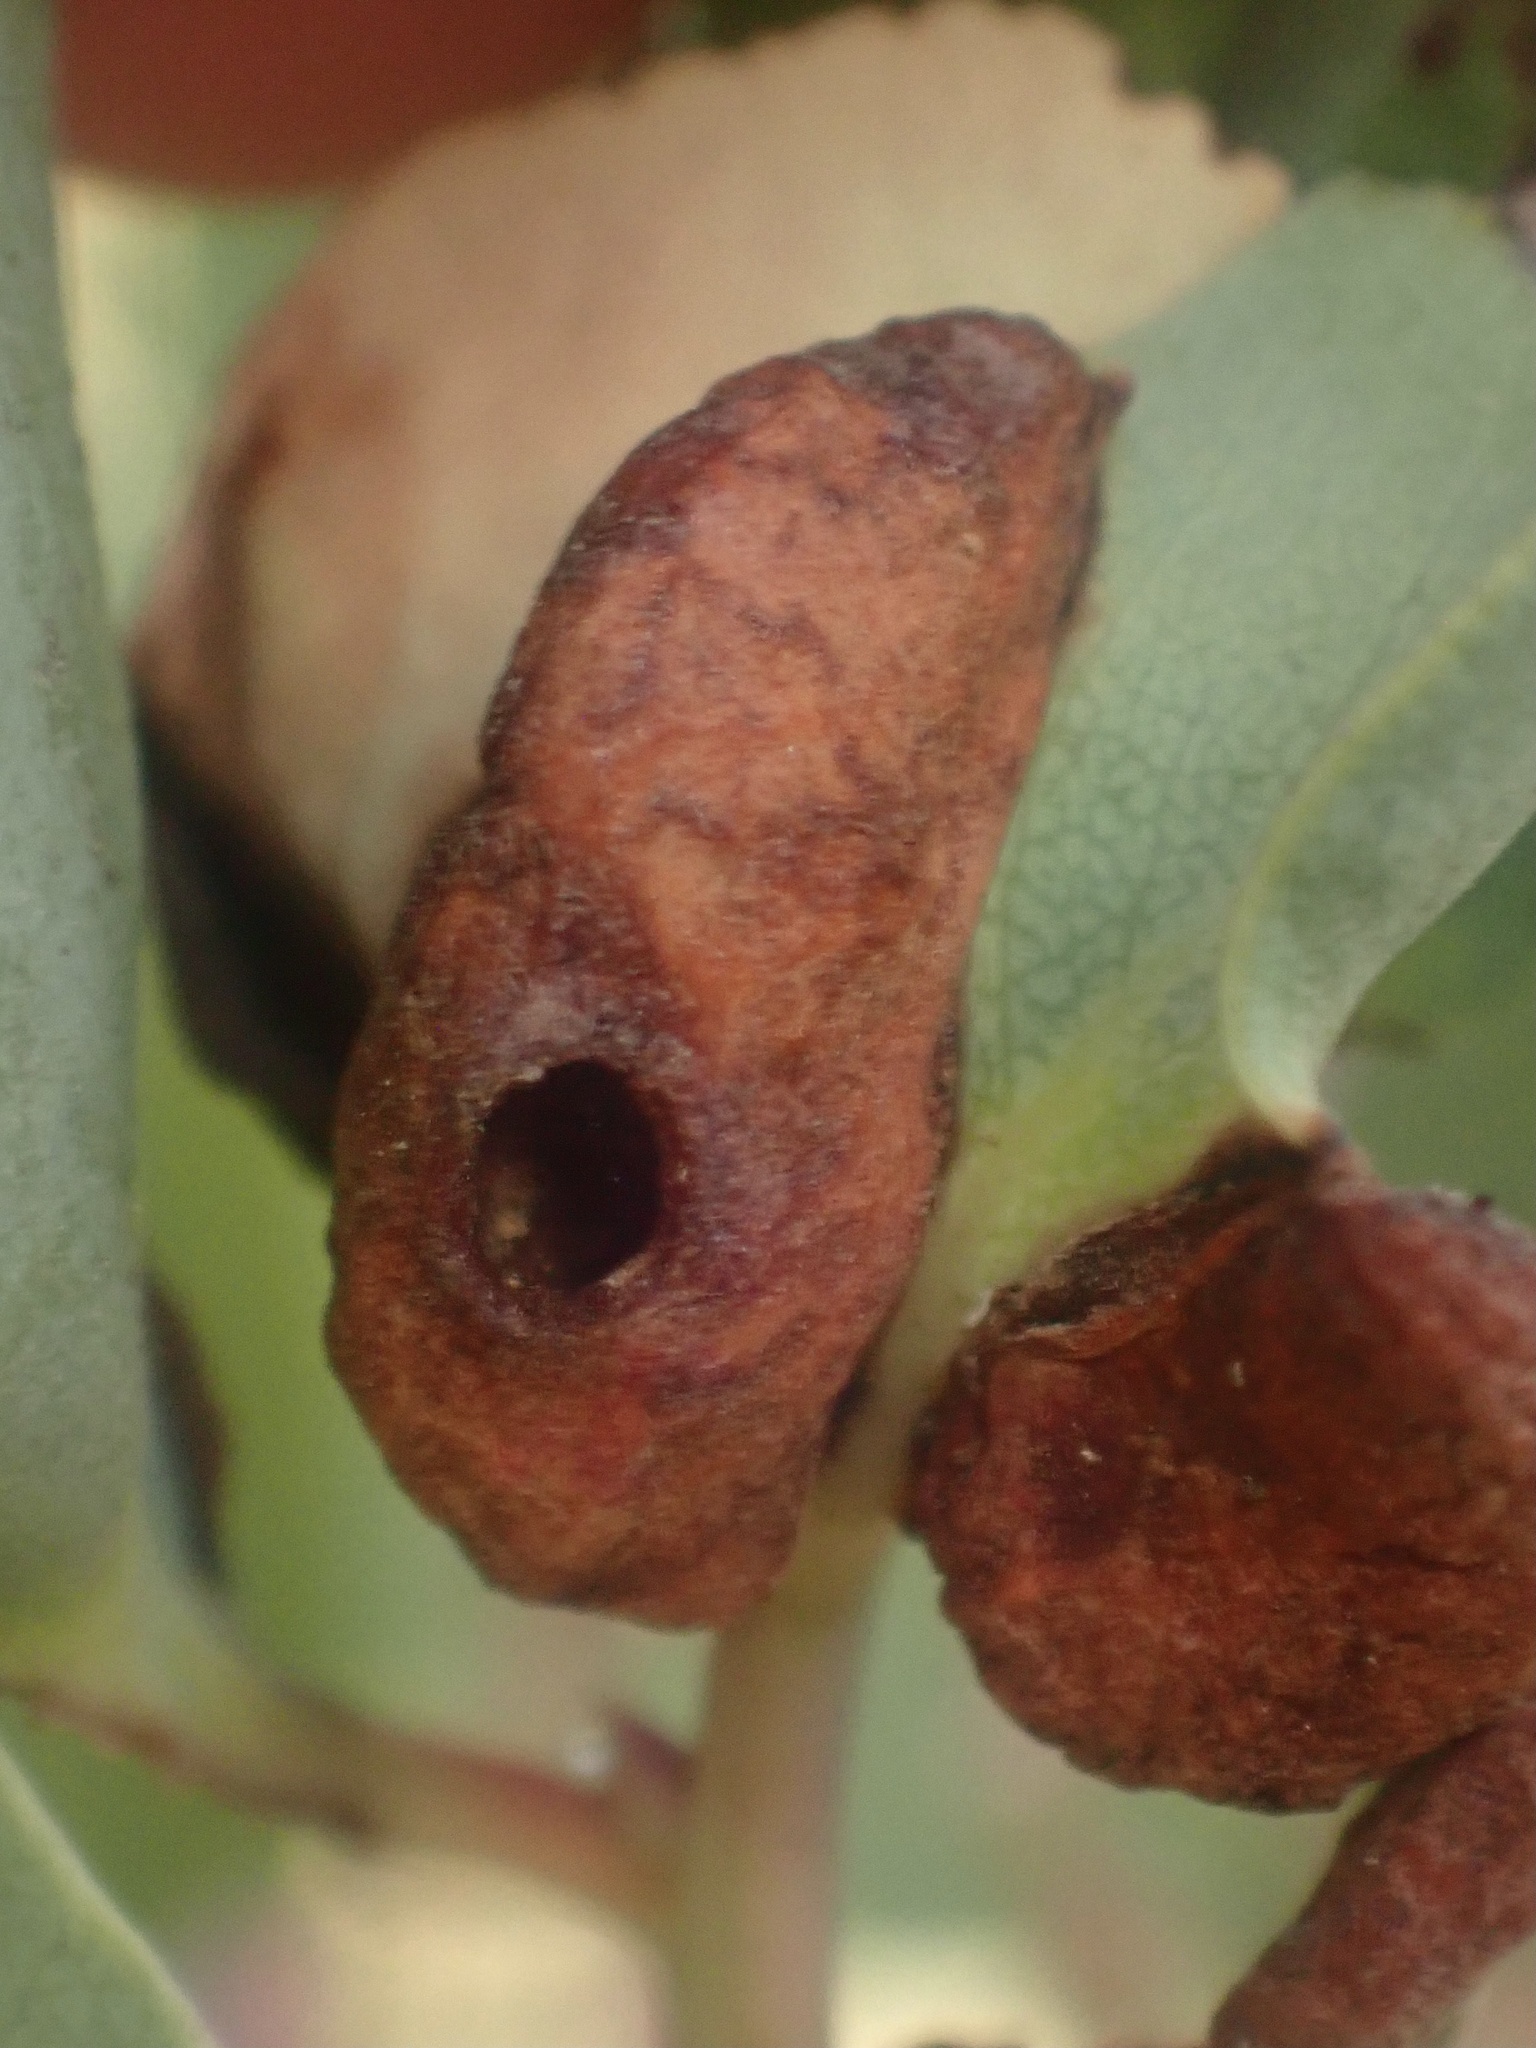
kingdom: Animalia
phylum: Arthropoda
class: Insecta
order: Hemiptera
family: Aphididae
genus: Tamalia
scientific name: Tamalia coweni
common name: Manzanita leafgall aphid
